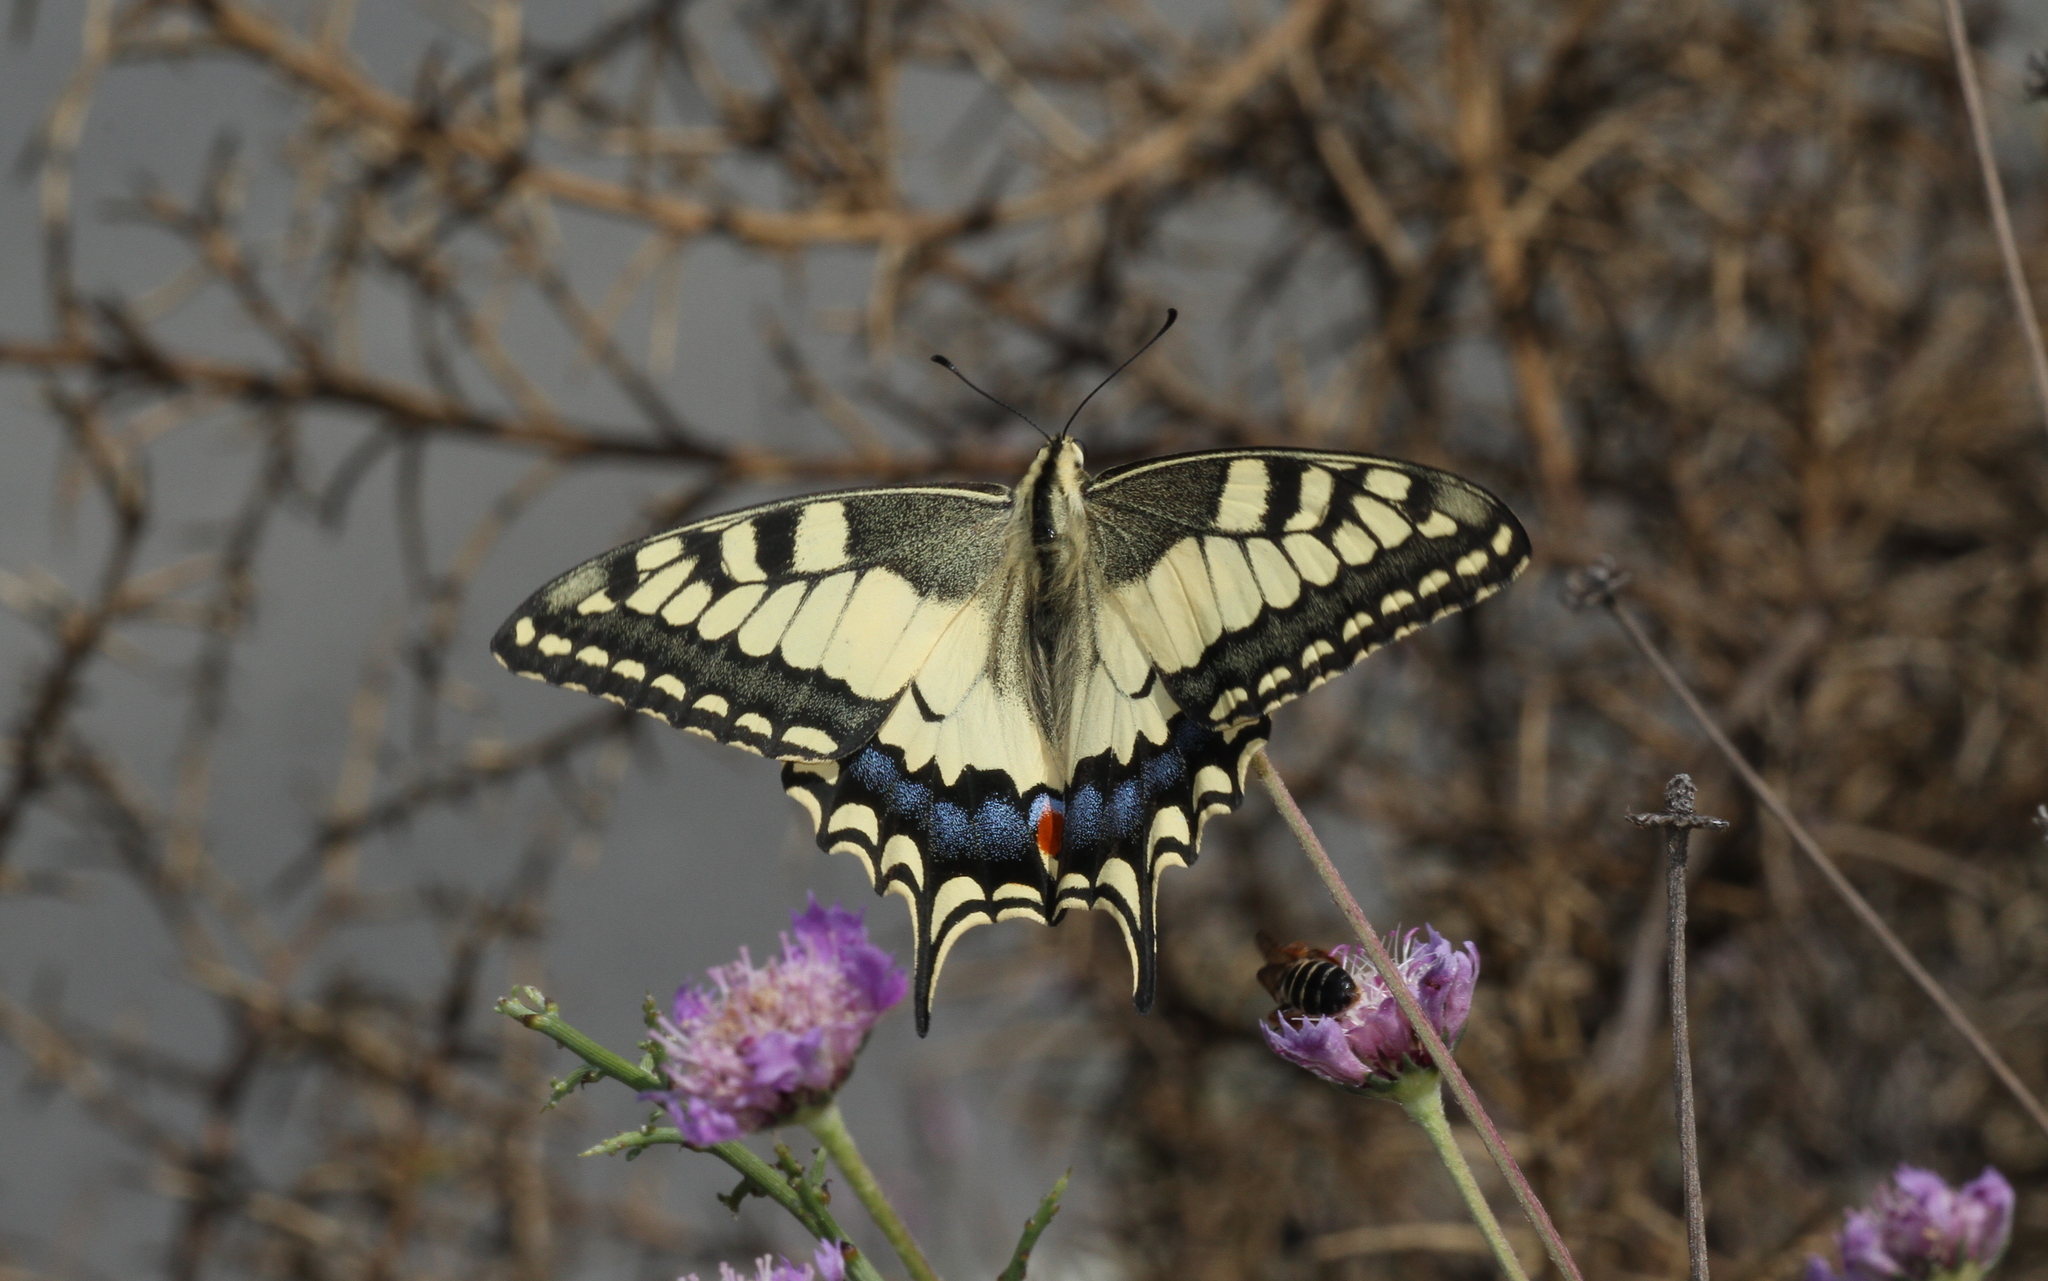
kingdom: Animalia
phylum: Arthropoda
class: Insecta
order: Lepidoptera
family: Papilionidae
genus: Papilio
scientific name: Papilio machaon
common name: Swallowtail
